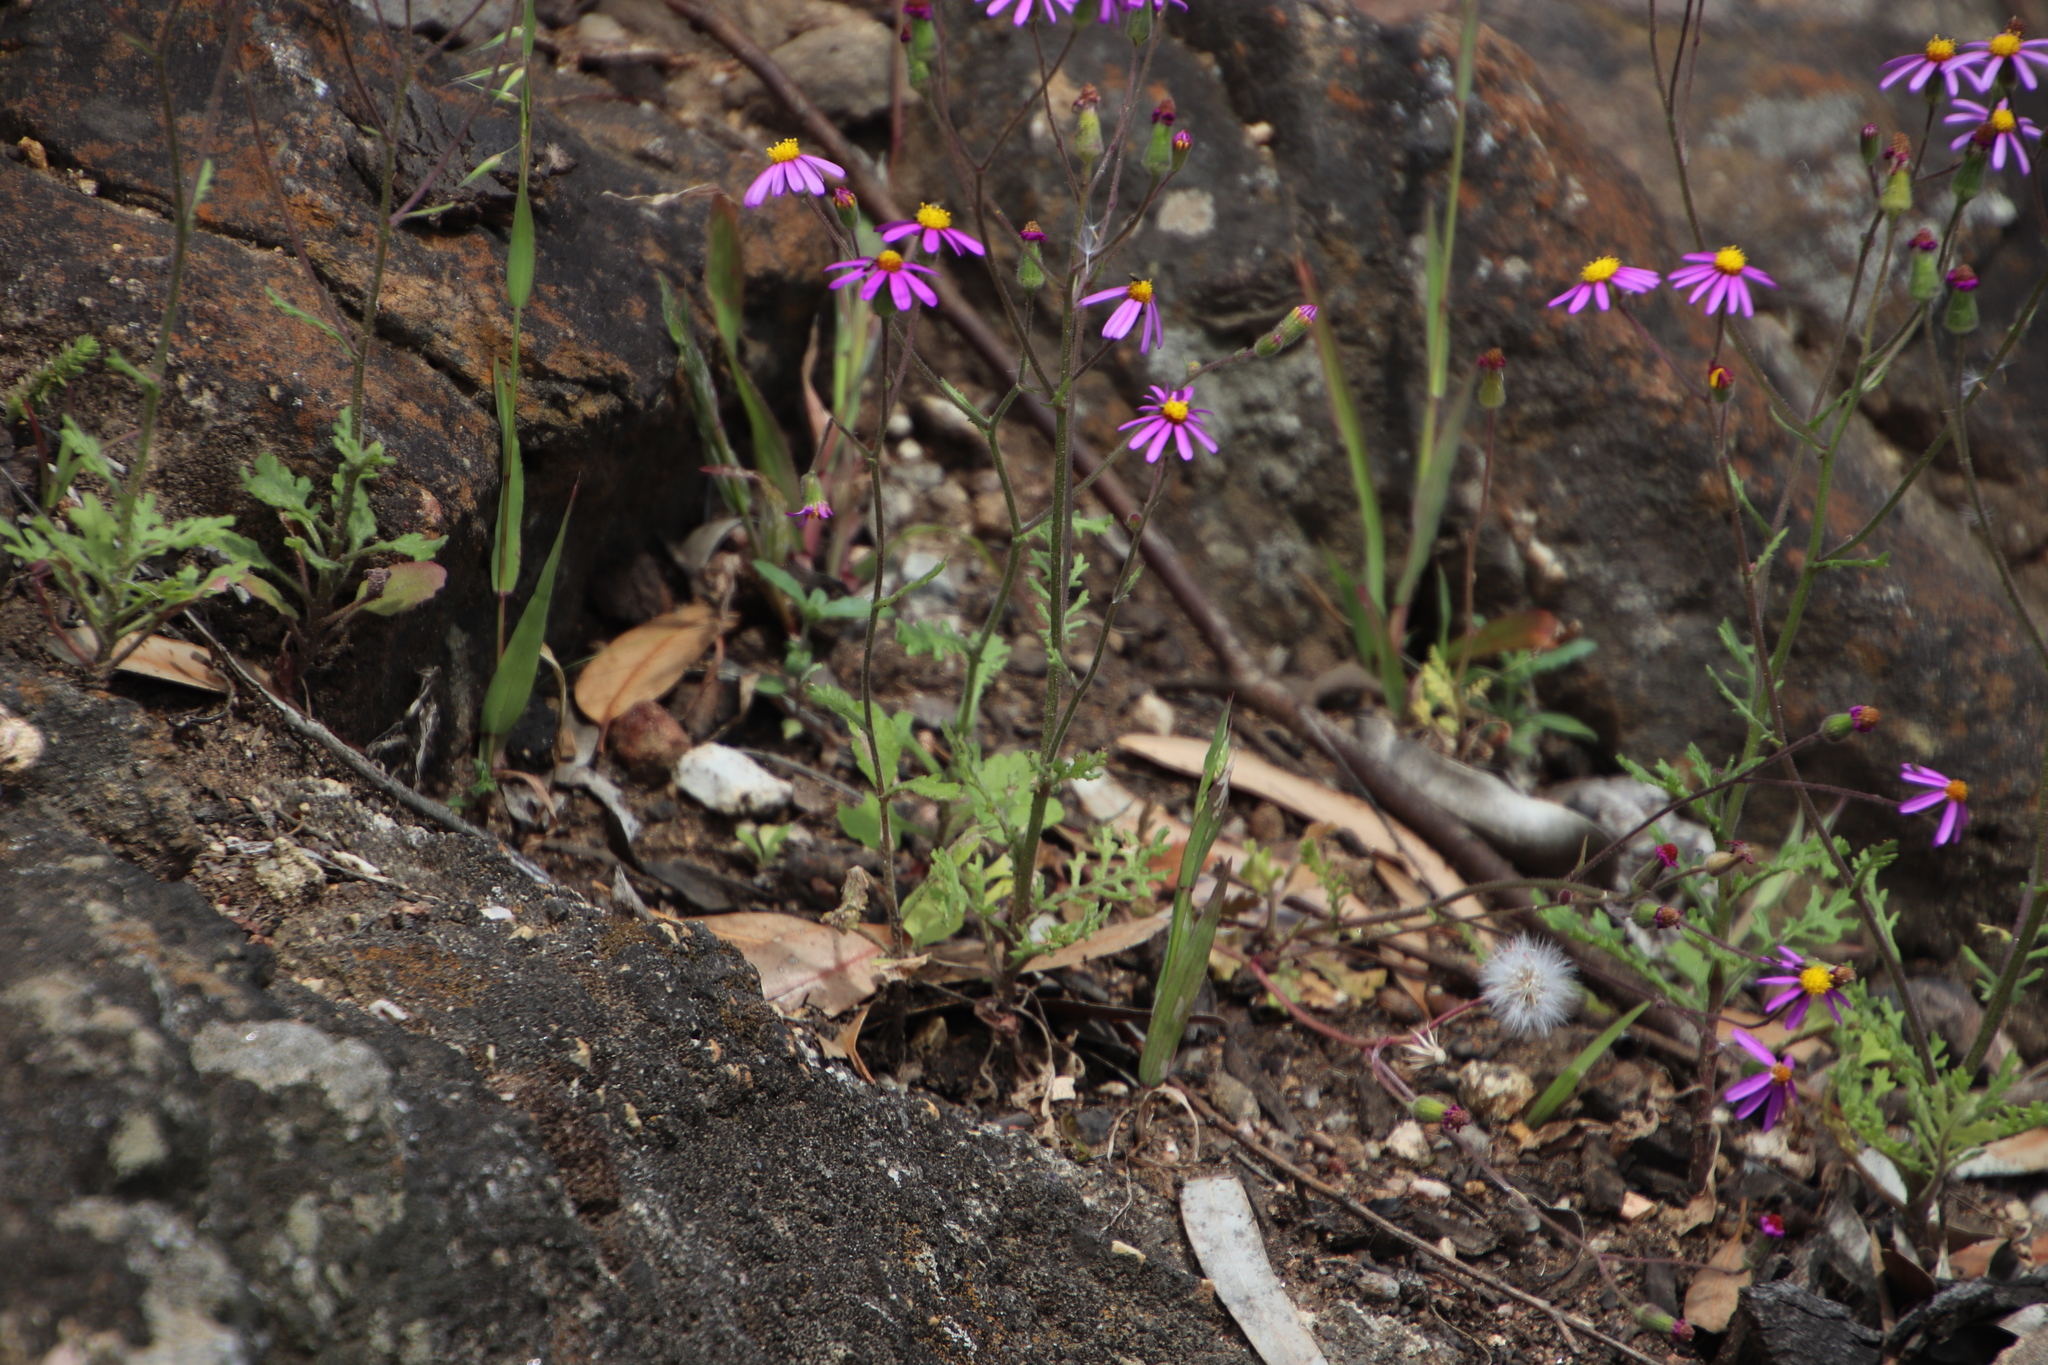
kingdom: Plantae
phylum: Tracheophyta
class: Magnoliopsida
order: Asterales
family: Asteraceae
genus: Senecio
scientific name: Senecio arenarius
